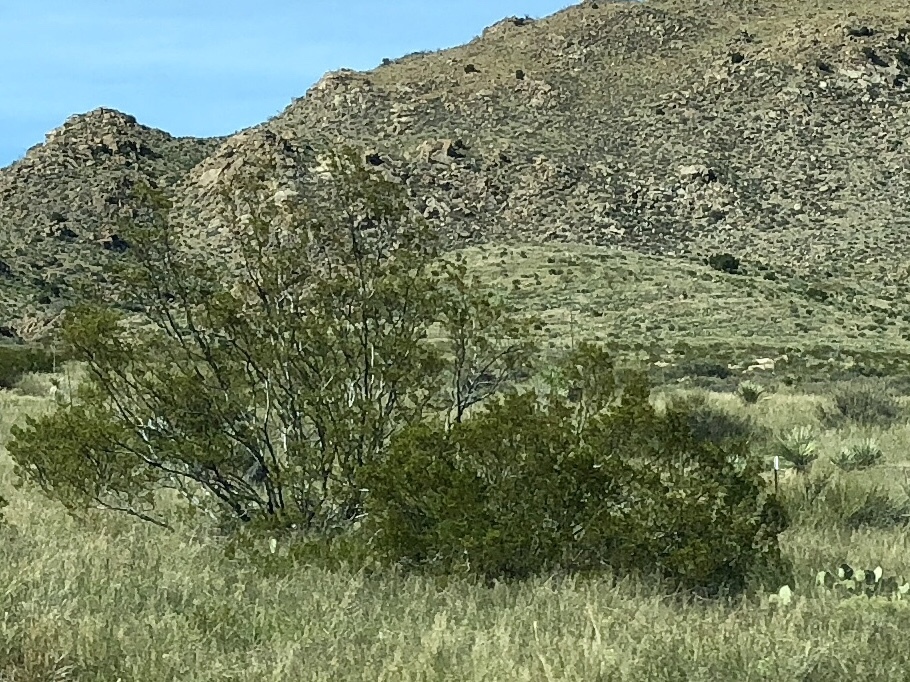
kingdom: Plantae
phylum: Tracheophyta
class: Magnoliopsida
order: Zygophyllales
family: Zygophyllaceae
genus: Larrea
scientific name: Larrea tridentata
